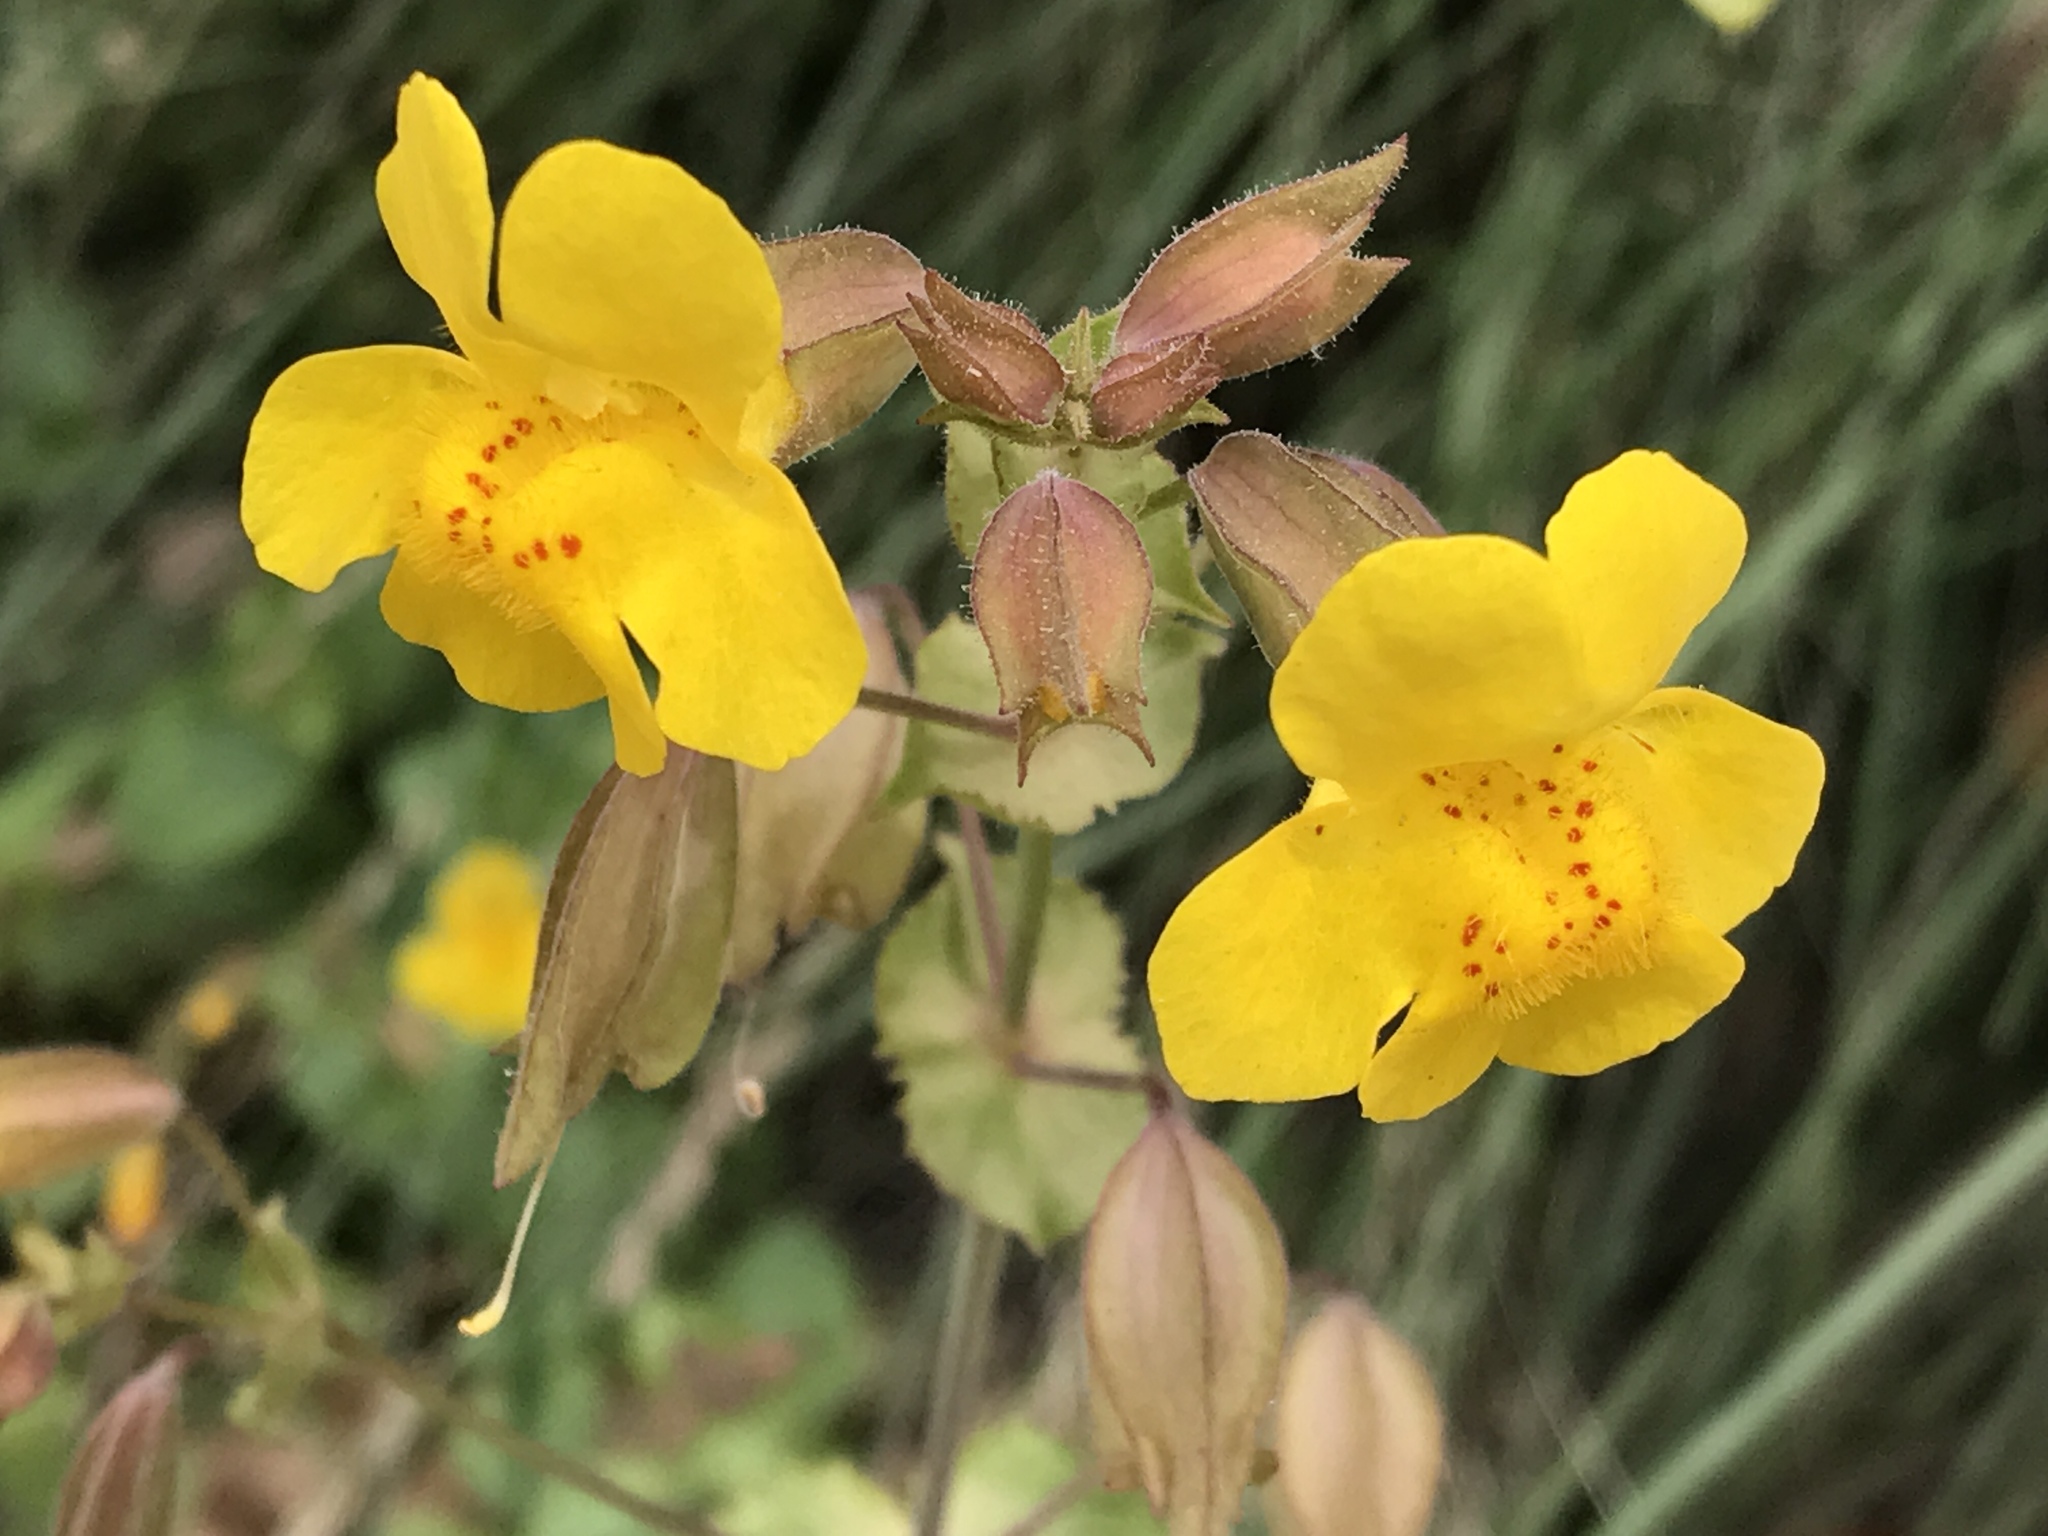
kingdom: Plantae
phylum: Tracheophyta
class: Magnoliopsida
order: Lamiales
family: Phrymaceae
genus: Erythranthe
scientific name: Erythranthe guttata
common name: Monkeyflower
